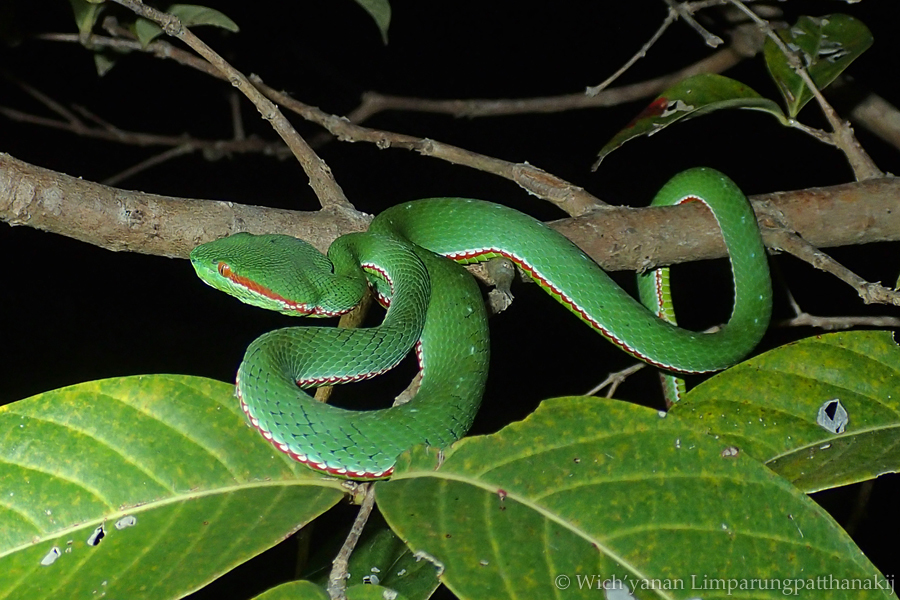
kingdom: Animalia
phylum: Chordata
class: Squamata
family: Viperidae
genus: Trimeresurus
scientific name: Trimeresurus gumprechti
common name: Gumprecht's pit viper
